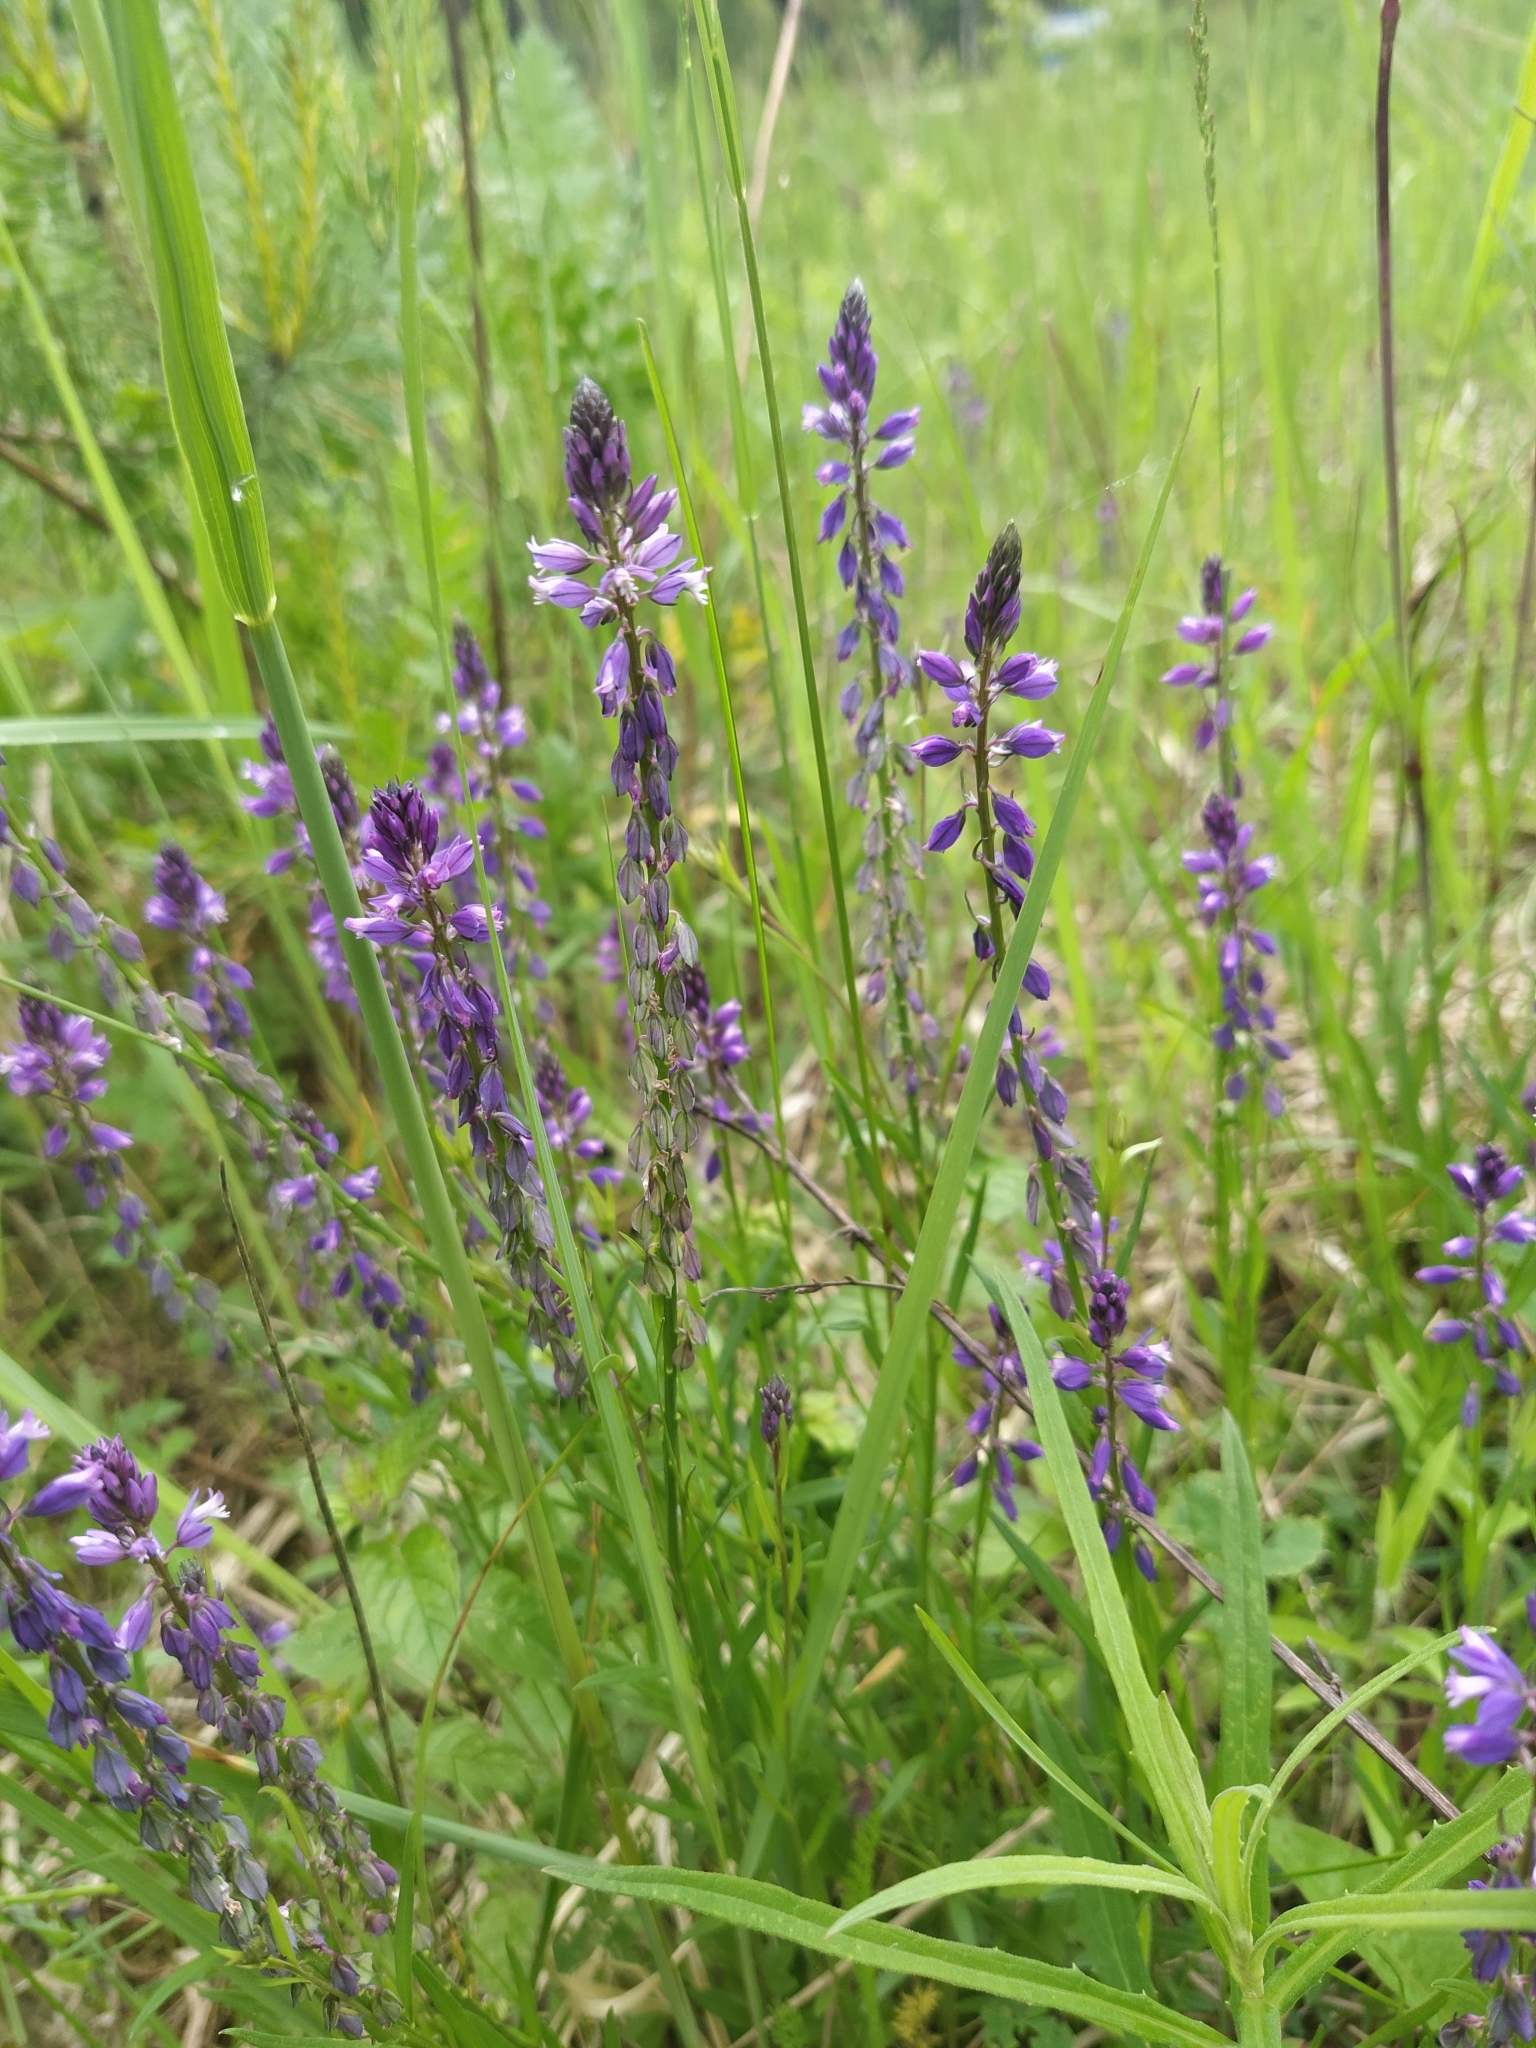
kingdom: Plantae
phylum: Tracheophyta
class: Magnoliopsida
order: Fabales
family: Polygalaceae
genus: Polygala
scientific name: Polygala comosa
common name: Tufted milkwort
